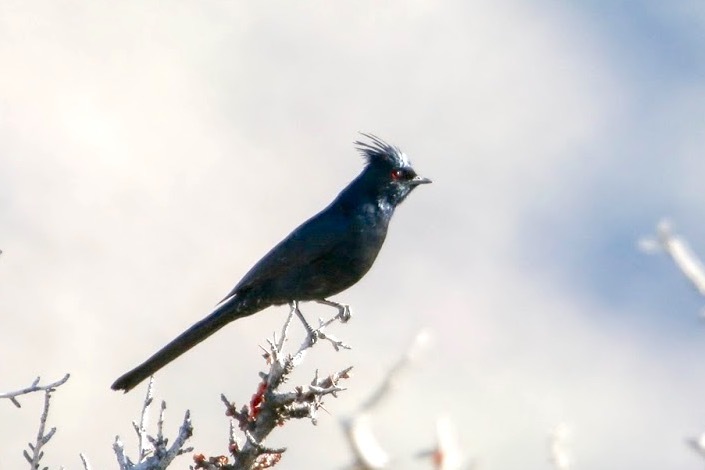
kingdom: Animalia
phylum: Chordata
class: Aves
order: Passeriformes
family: Ptilogonatidae
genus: Phainopepla
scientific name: Phainopepla nitens
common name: Phainopepla
